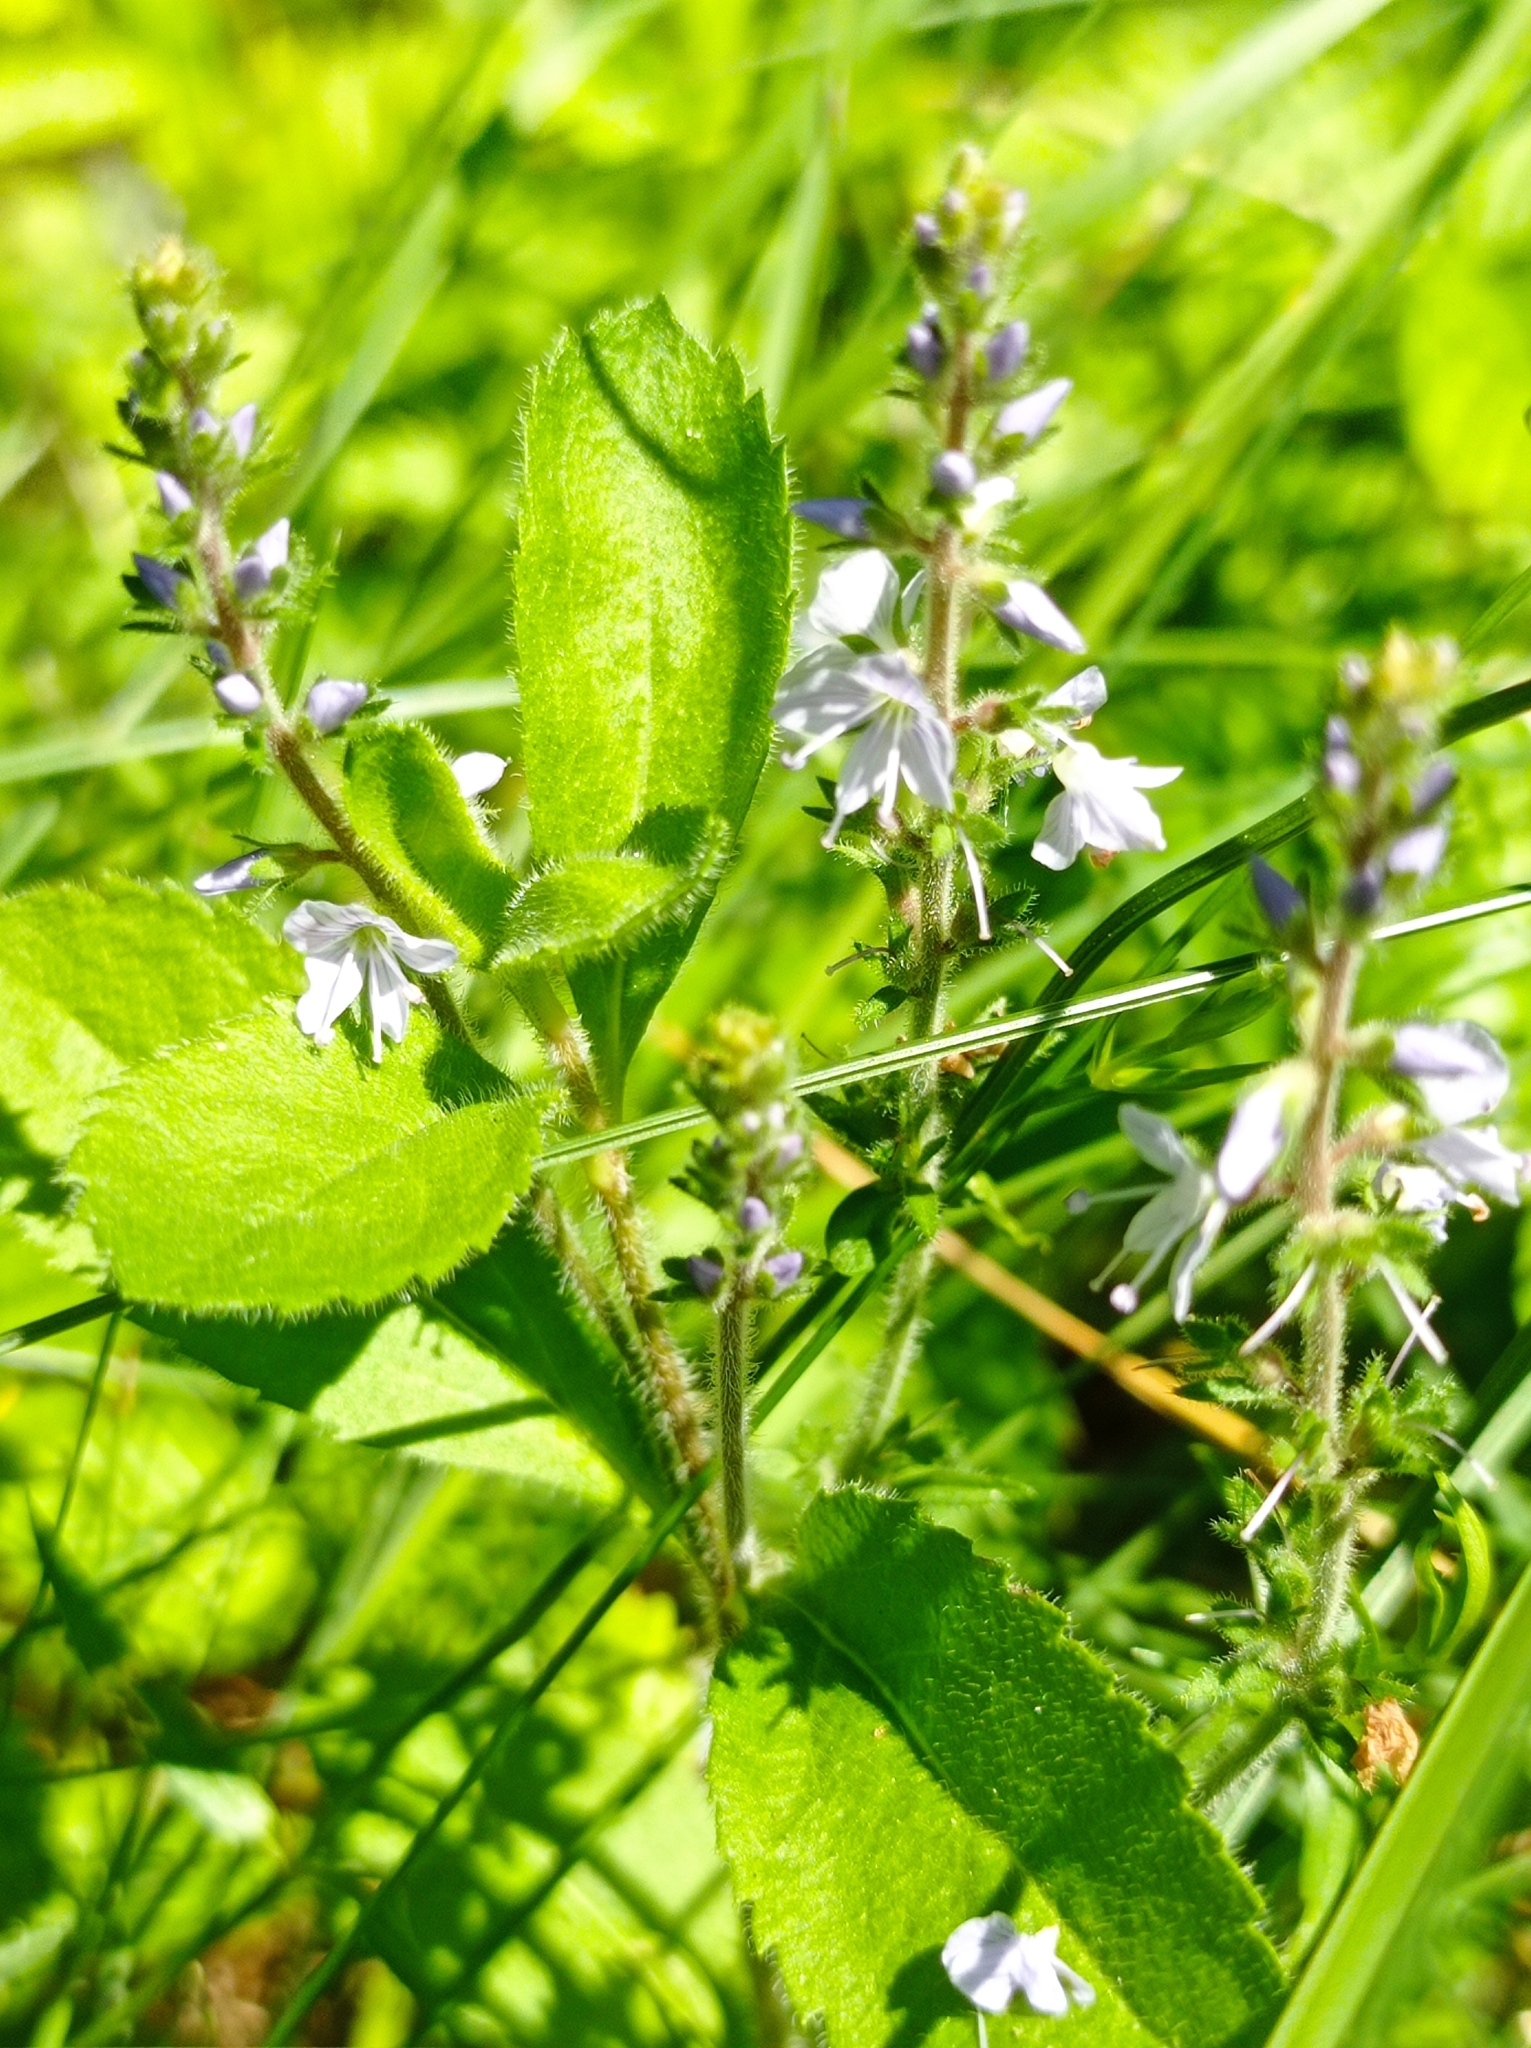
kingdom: Plantae
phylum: Tracheophyta
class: Magnoliopsida
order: Lamiales
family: Plantaginaceae
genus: Veronica
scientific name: Veronica officinalis
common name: Common speedwell
